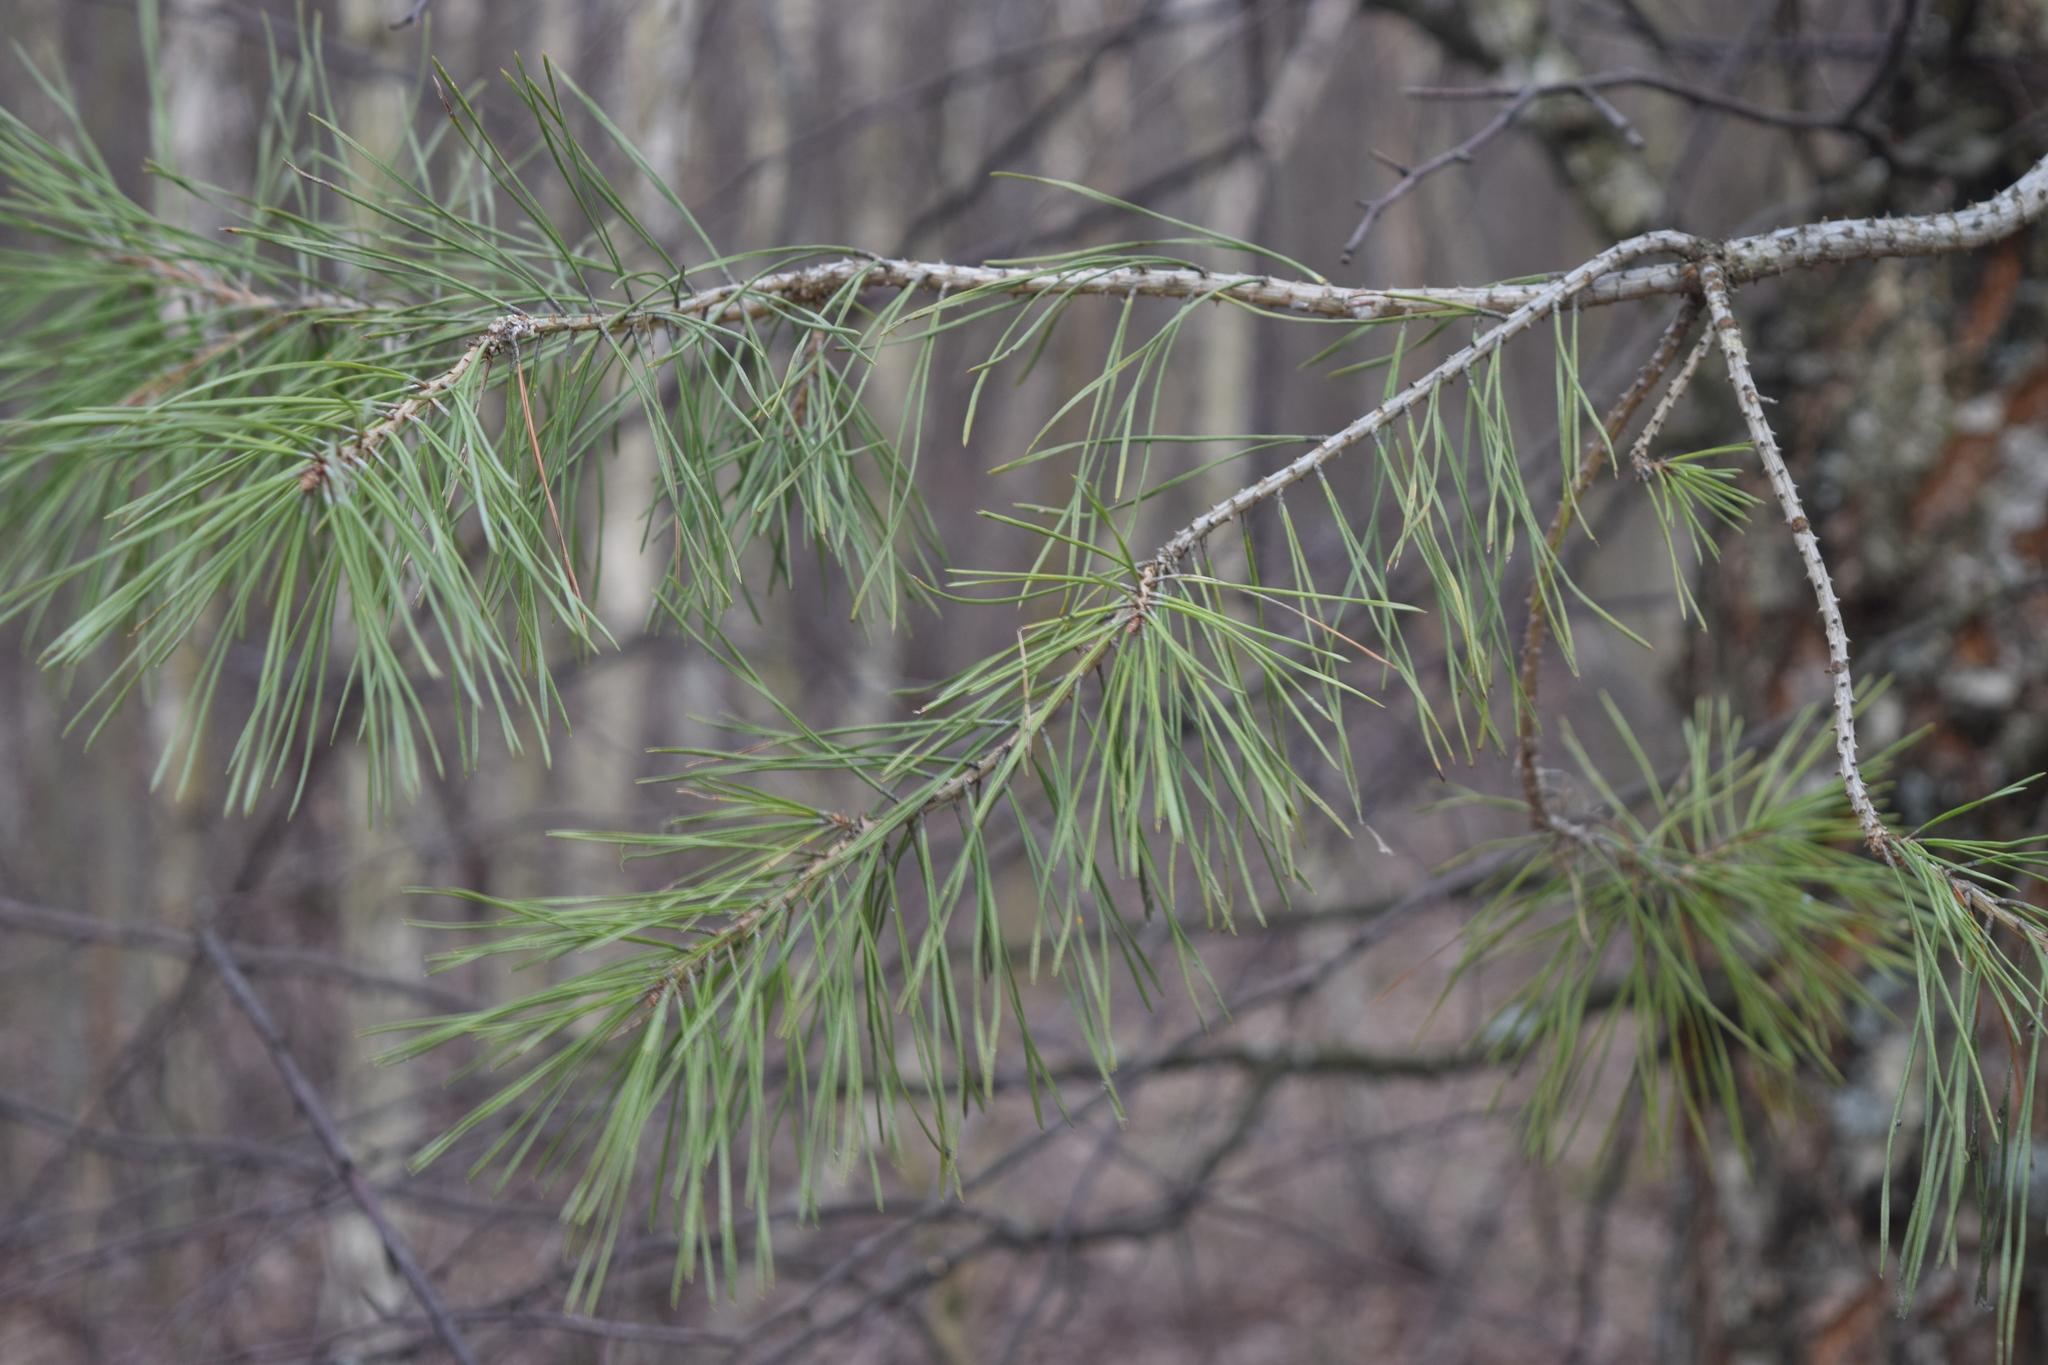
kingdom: Plantae
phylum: Tracheophyta
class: Pinopsida
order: Pinales
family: Pinaceae
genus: Pinus
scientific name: Pinus sylvestris
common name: Scots pine
